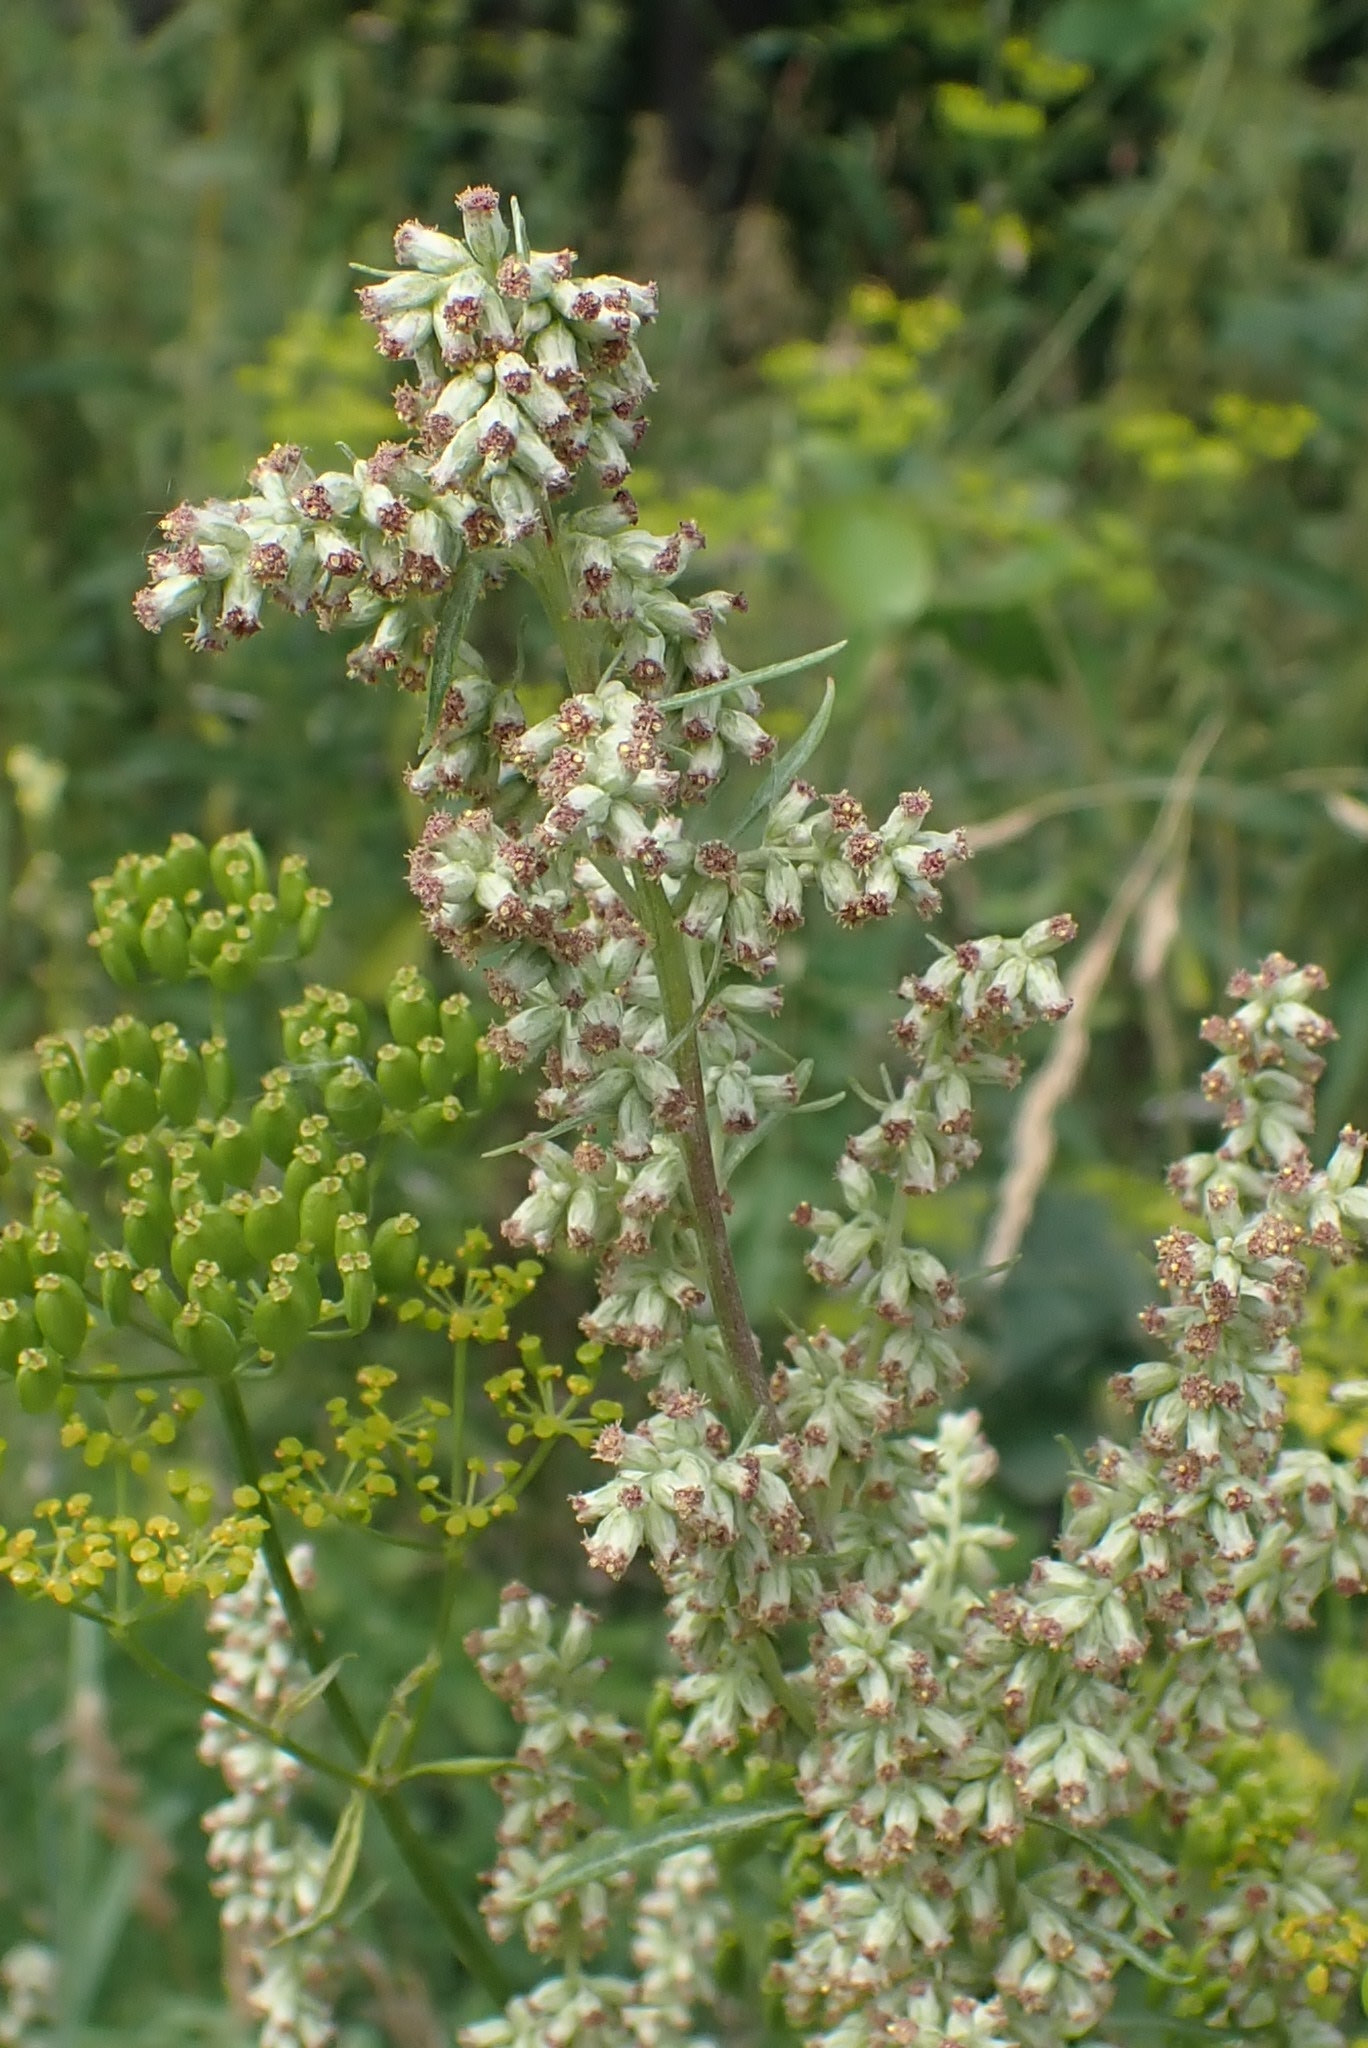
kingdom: Plantae
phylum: Tracheophyta
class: Magnoliopsida
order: Asterales
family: Asteraceae
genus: Artemisia
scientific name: Artemisia vulgaris
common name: Mugwort
